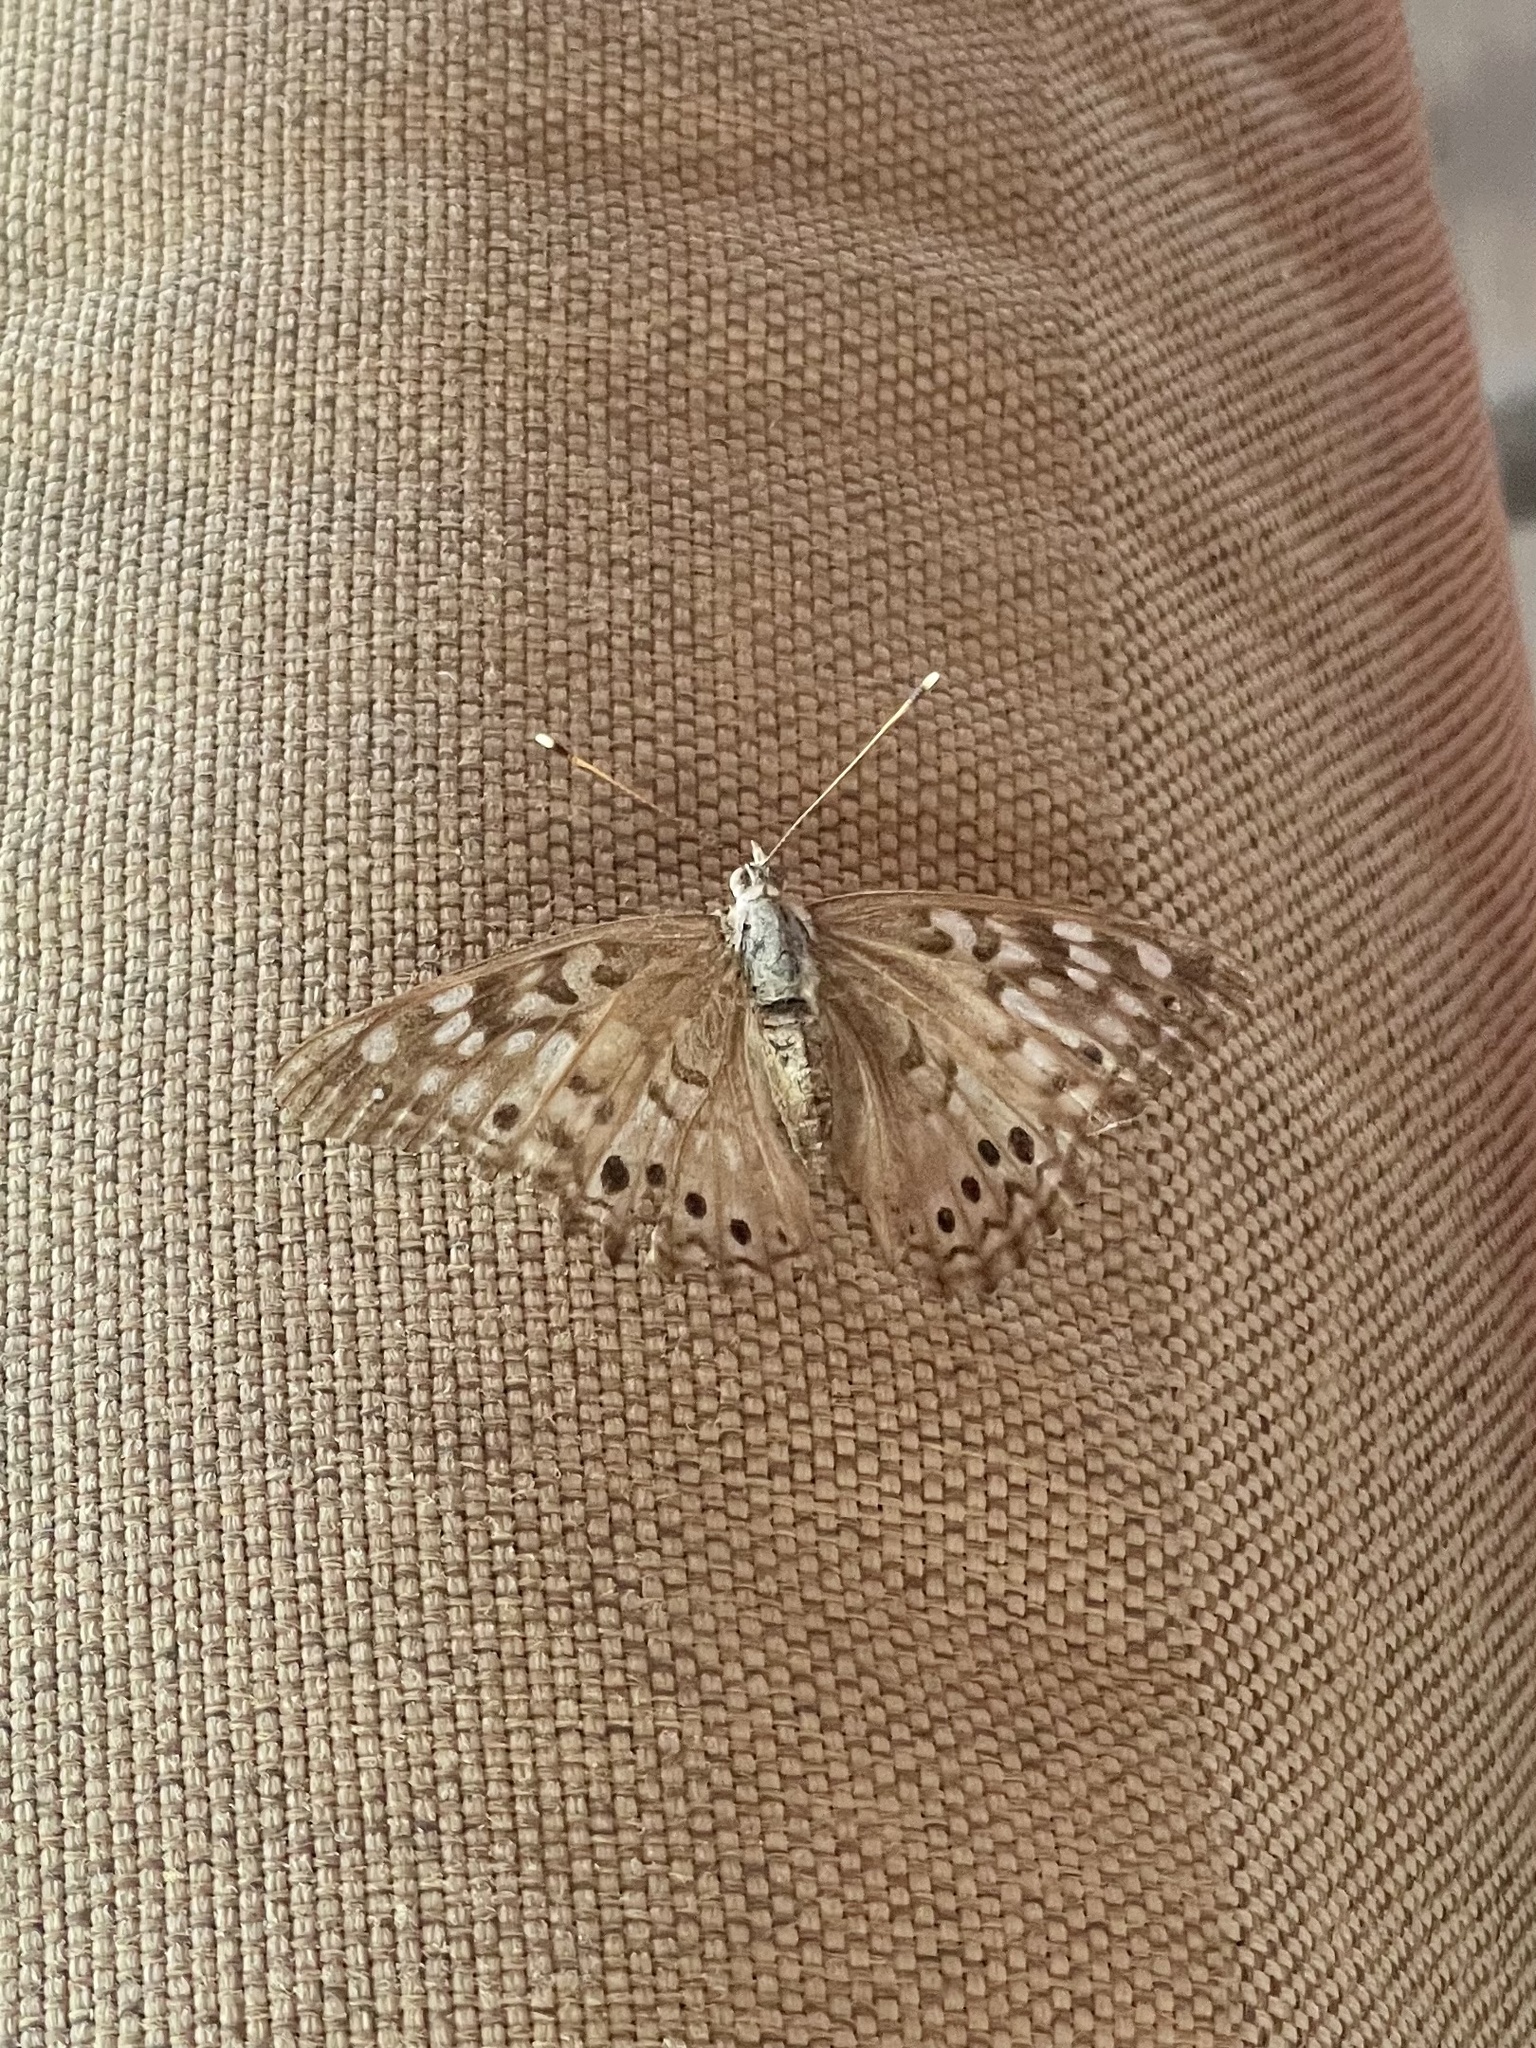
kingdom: Animalia
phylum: Arthropoda
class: Insecta
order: Lepidoptera
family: Nymphalidae
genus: Asterocampa
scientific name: Asterocampa celtis
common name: Hackberry emperor
